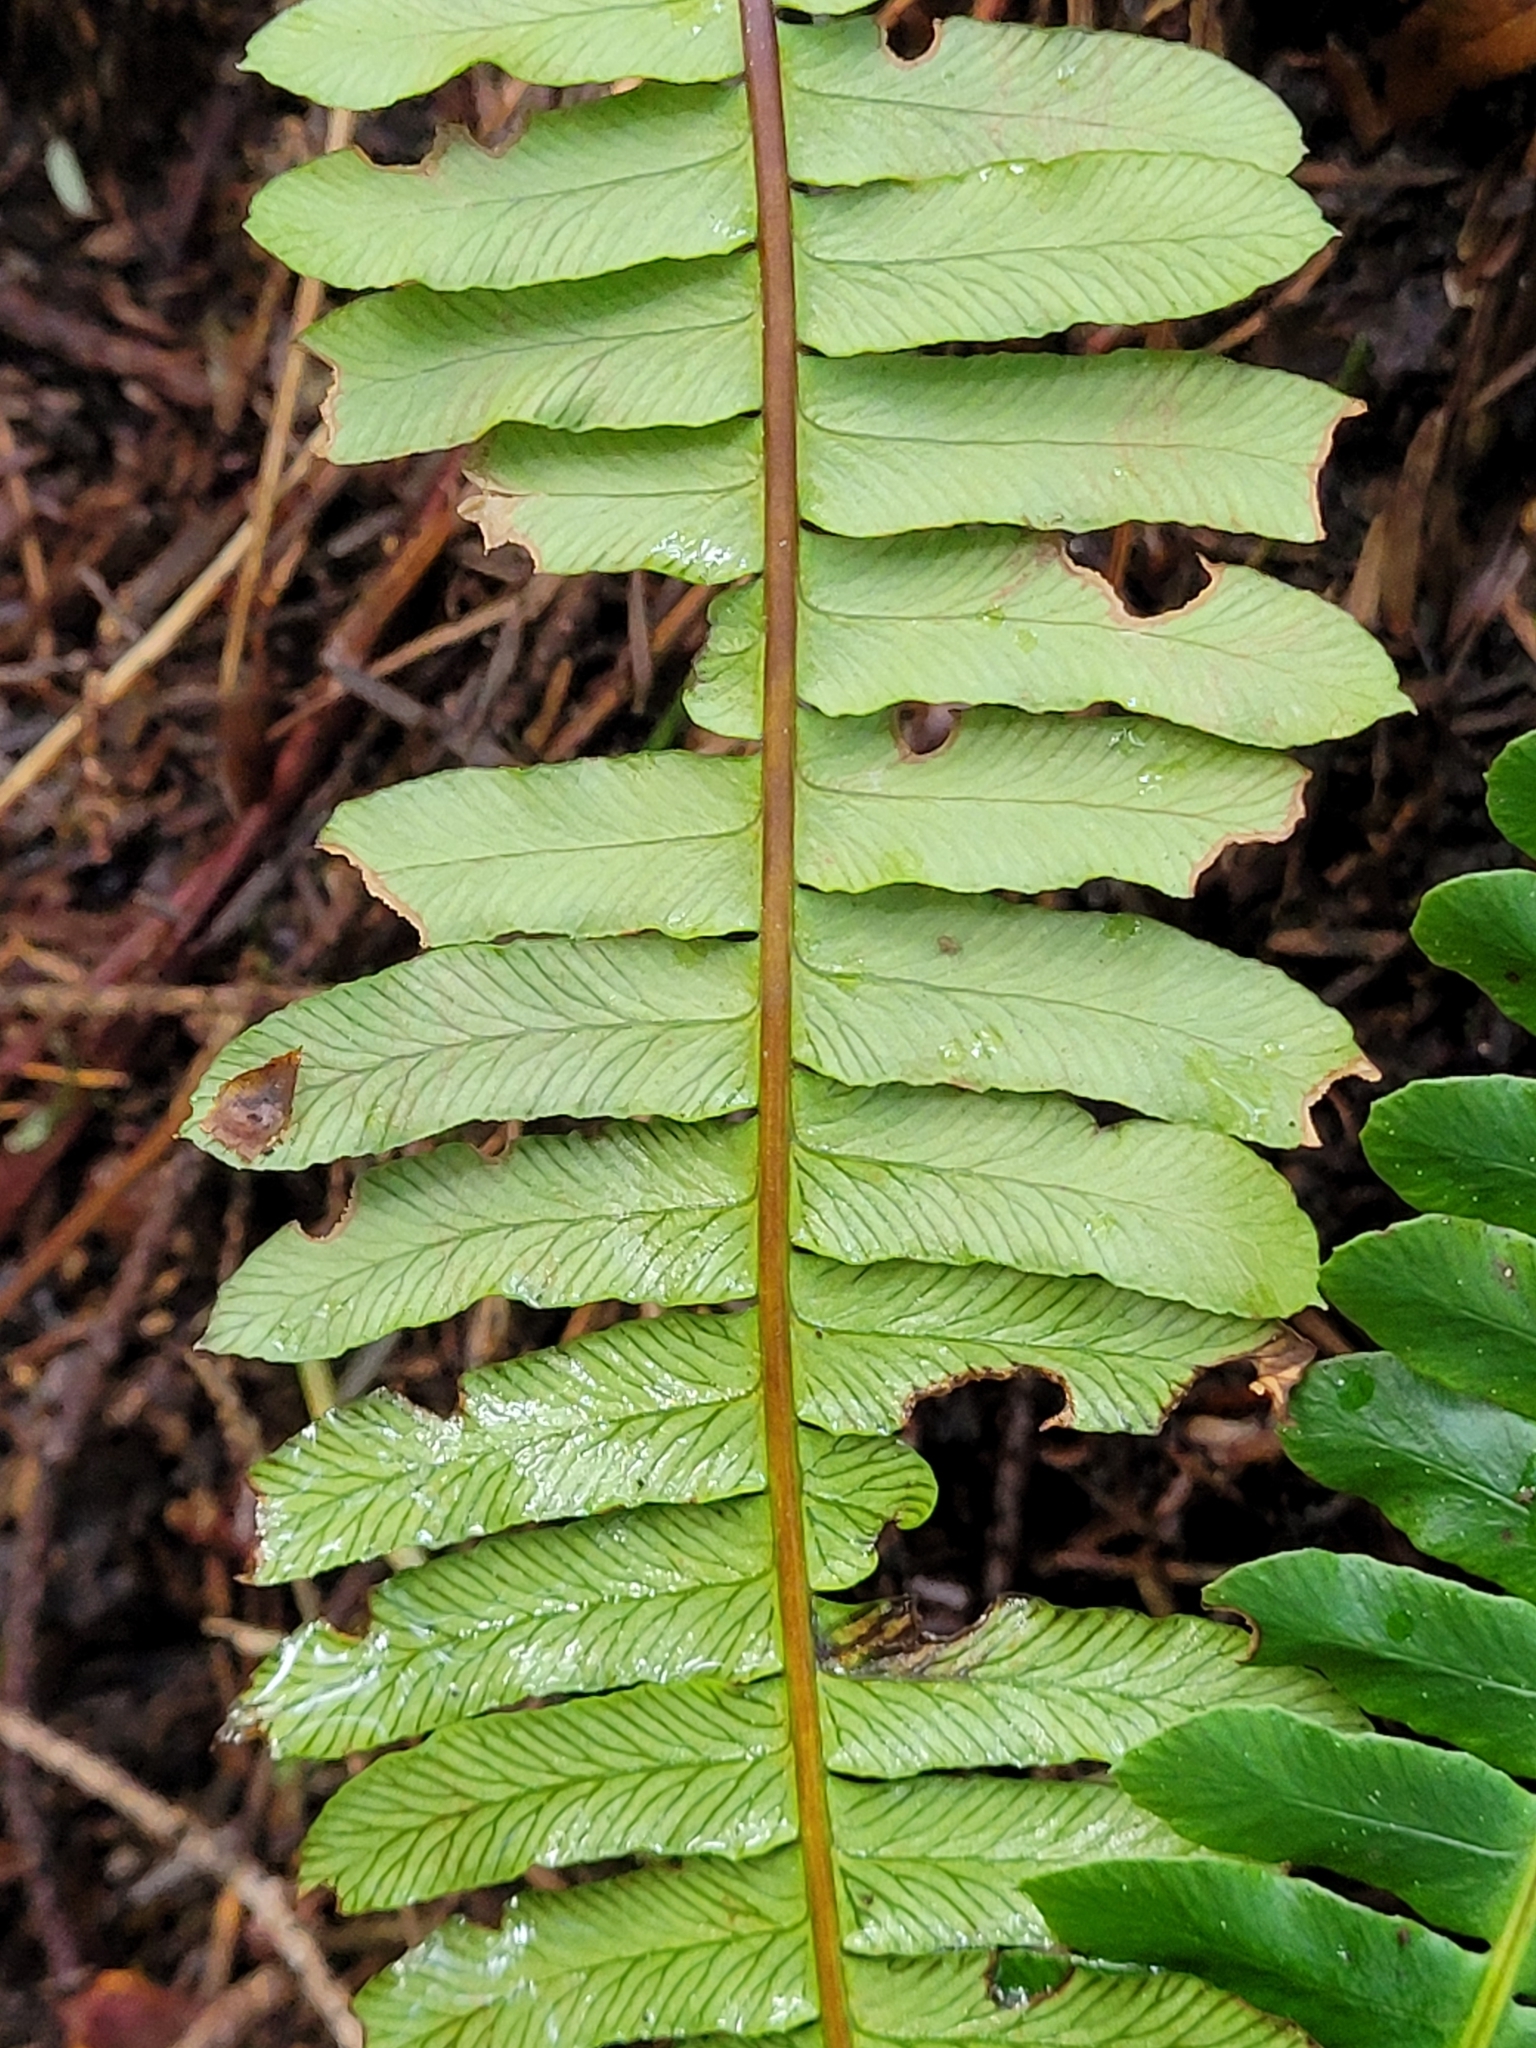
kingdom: Plantae
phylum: Tracheophyta
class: Polypodiopsida
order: Polypodiales
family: Blechnaceae
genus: Struthiopteris
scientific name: Struthiopteris spicant
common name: Deer fern
